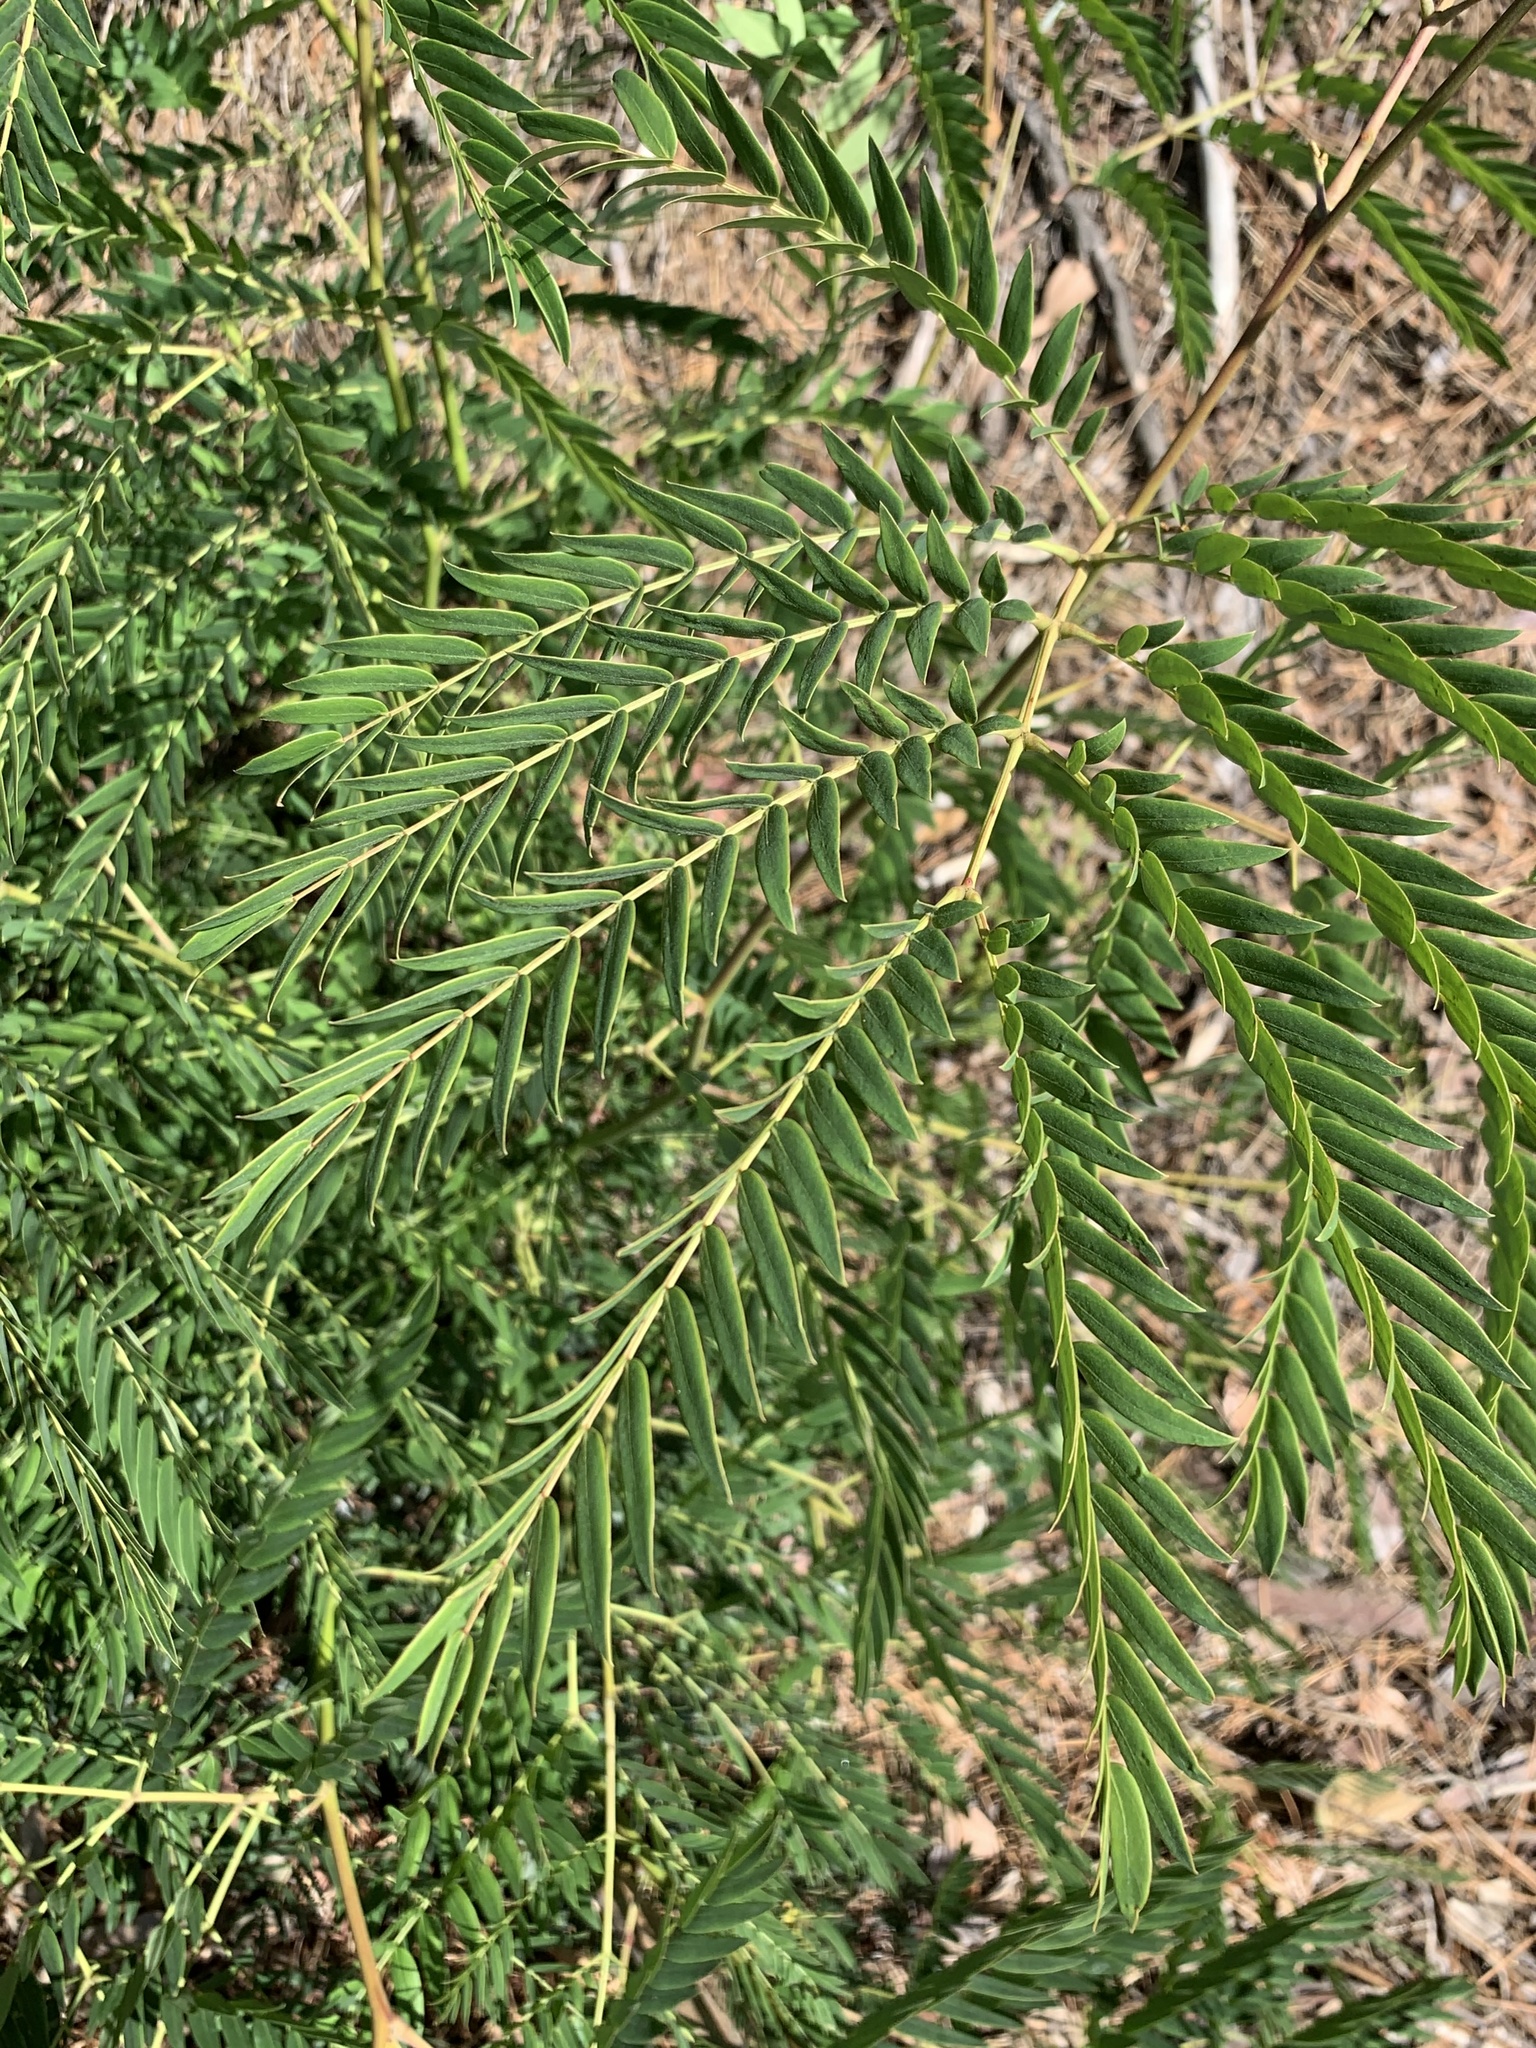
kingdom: Plantae
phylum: Tracheophyta
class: Magnoliopsida
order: Fabales
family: Fabaceae
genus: Acacia
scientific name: Acacia elata
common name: Cedar wattle
